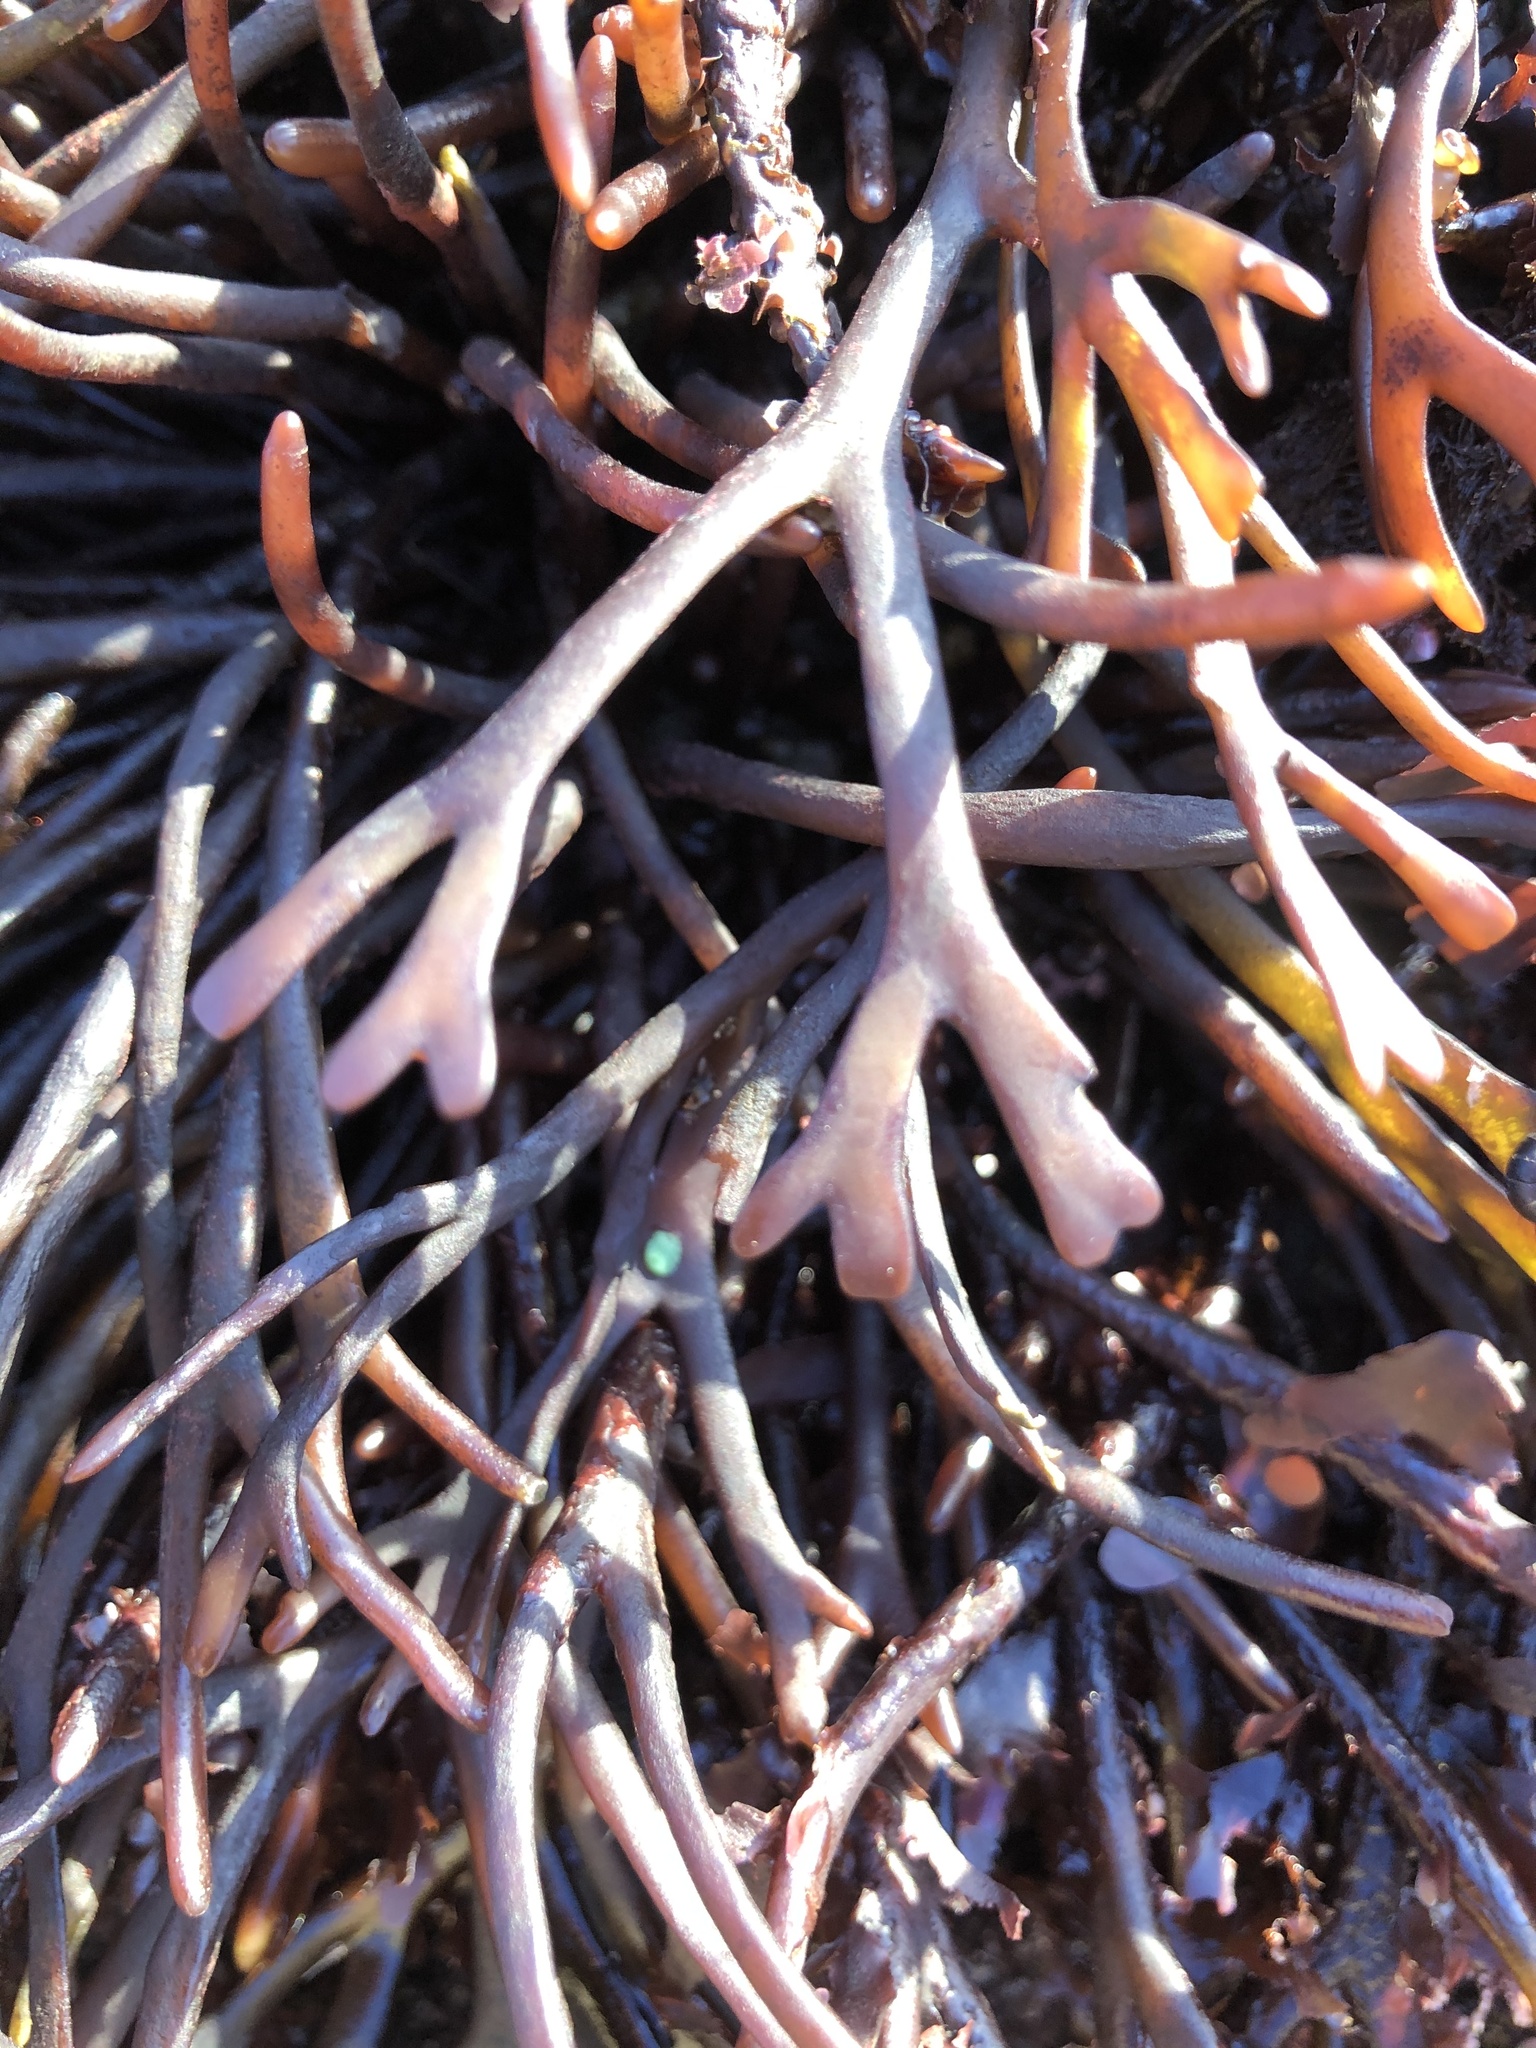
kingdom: Plantae
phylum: Rhodophyta
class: Florideophyceae
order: Gigartinales
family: Phyllophoraceae
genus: Ahnfeltiopsis
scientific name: Ahnfeltiopsis linearis
